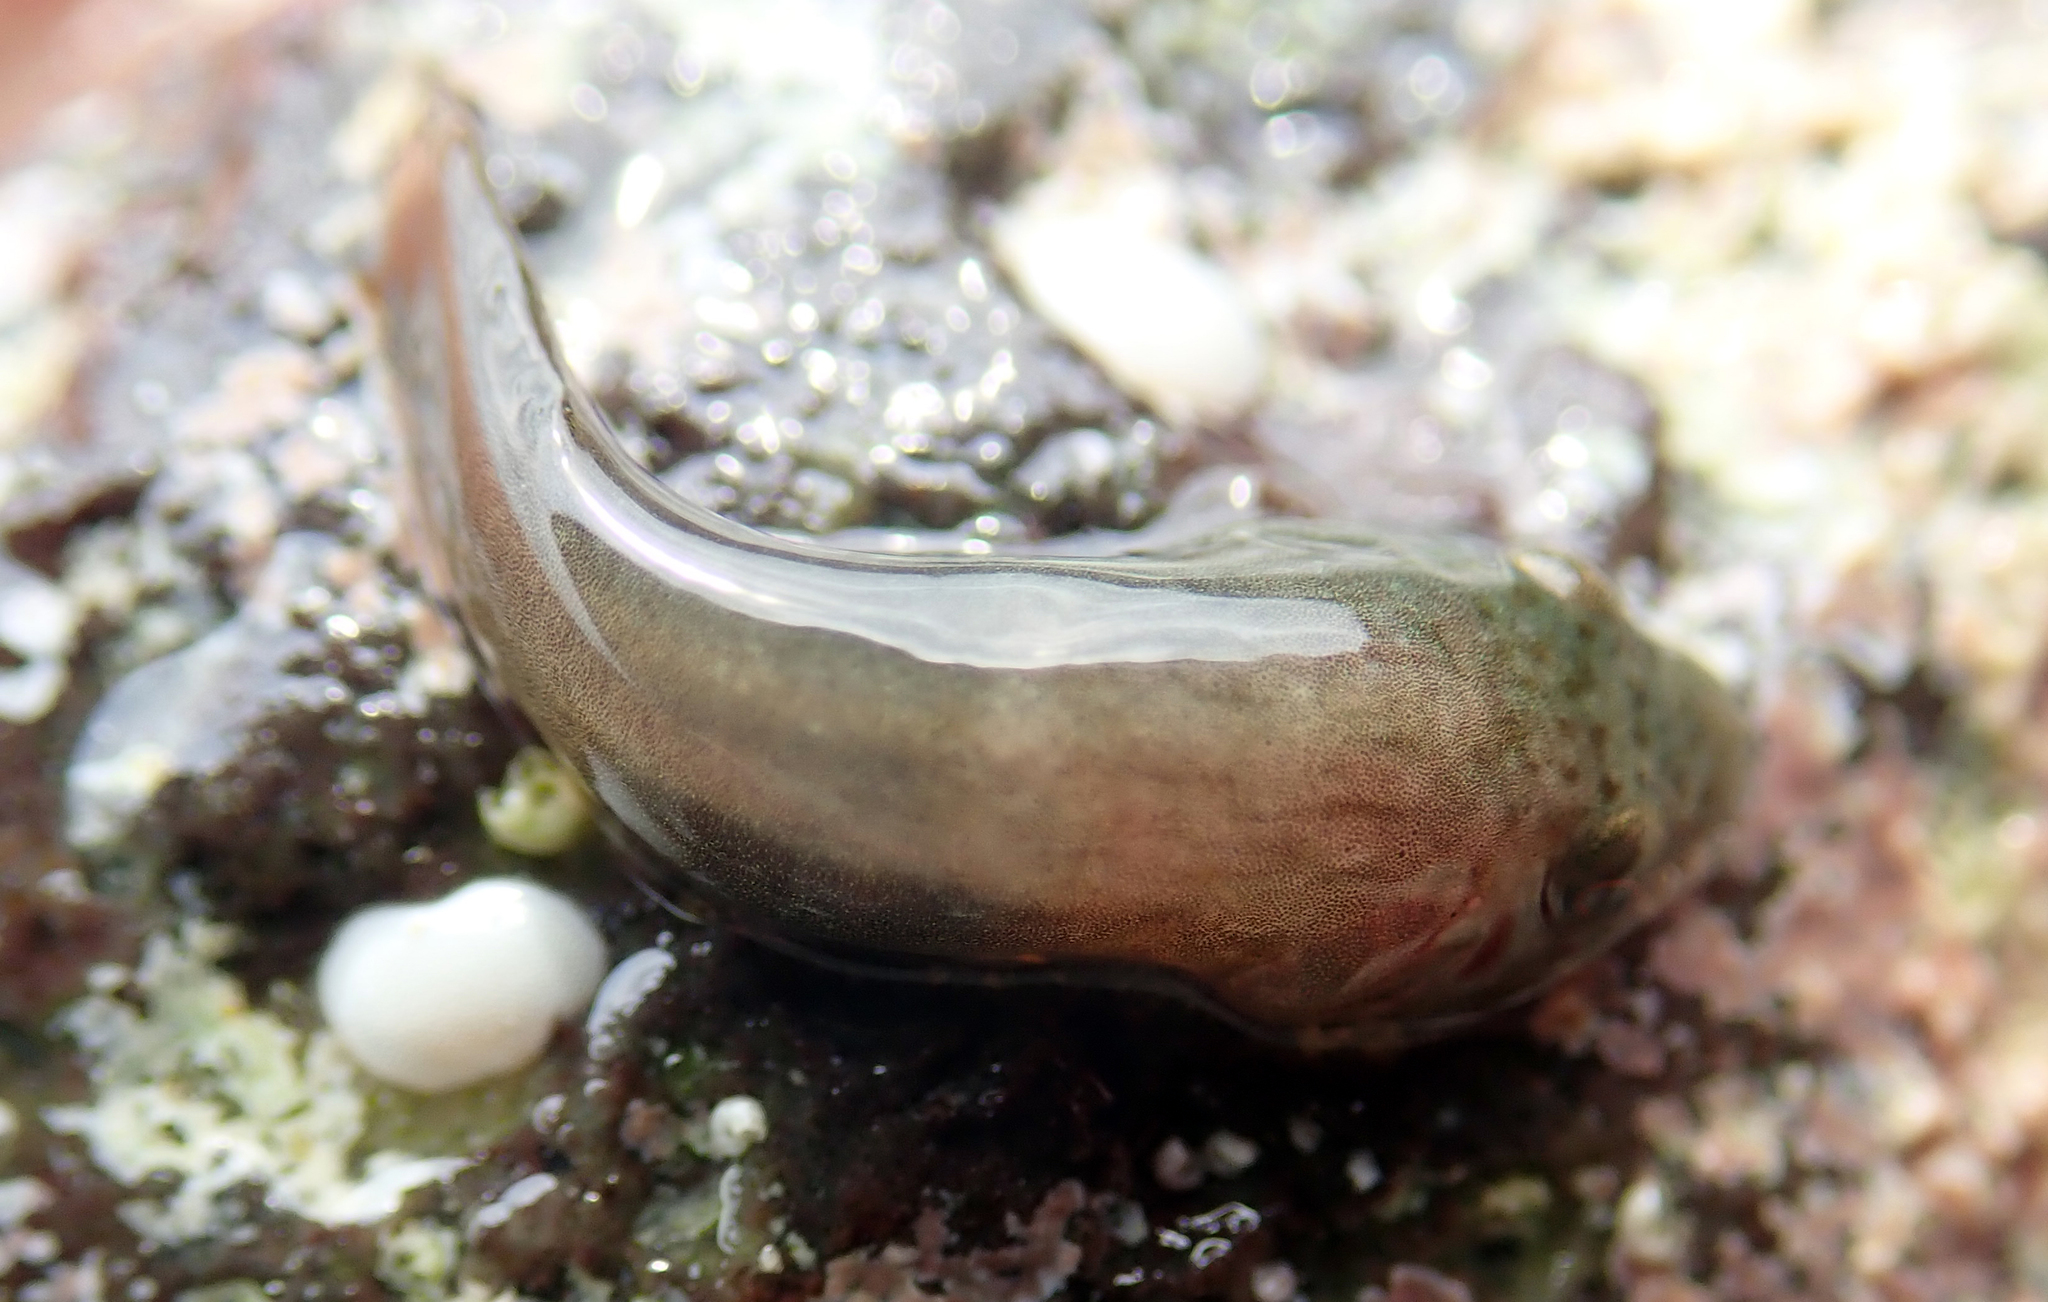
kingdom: Animalia
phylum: Chordata
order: Gobiesociformes
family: Gobiesocidae
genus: Trachelochismus
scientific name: Trachelochismus pinnulatus
